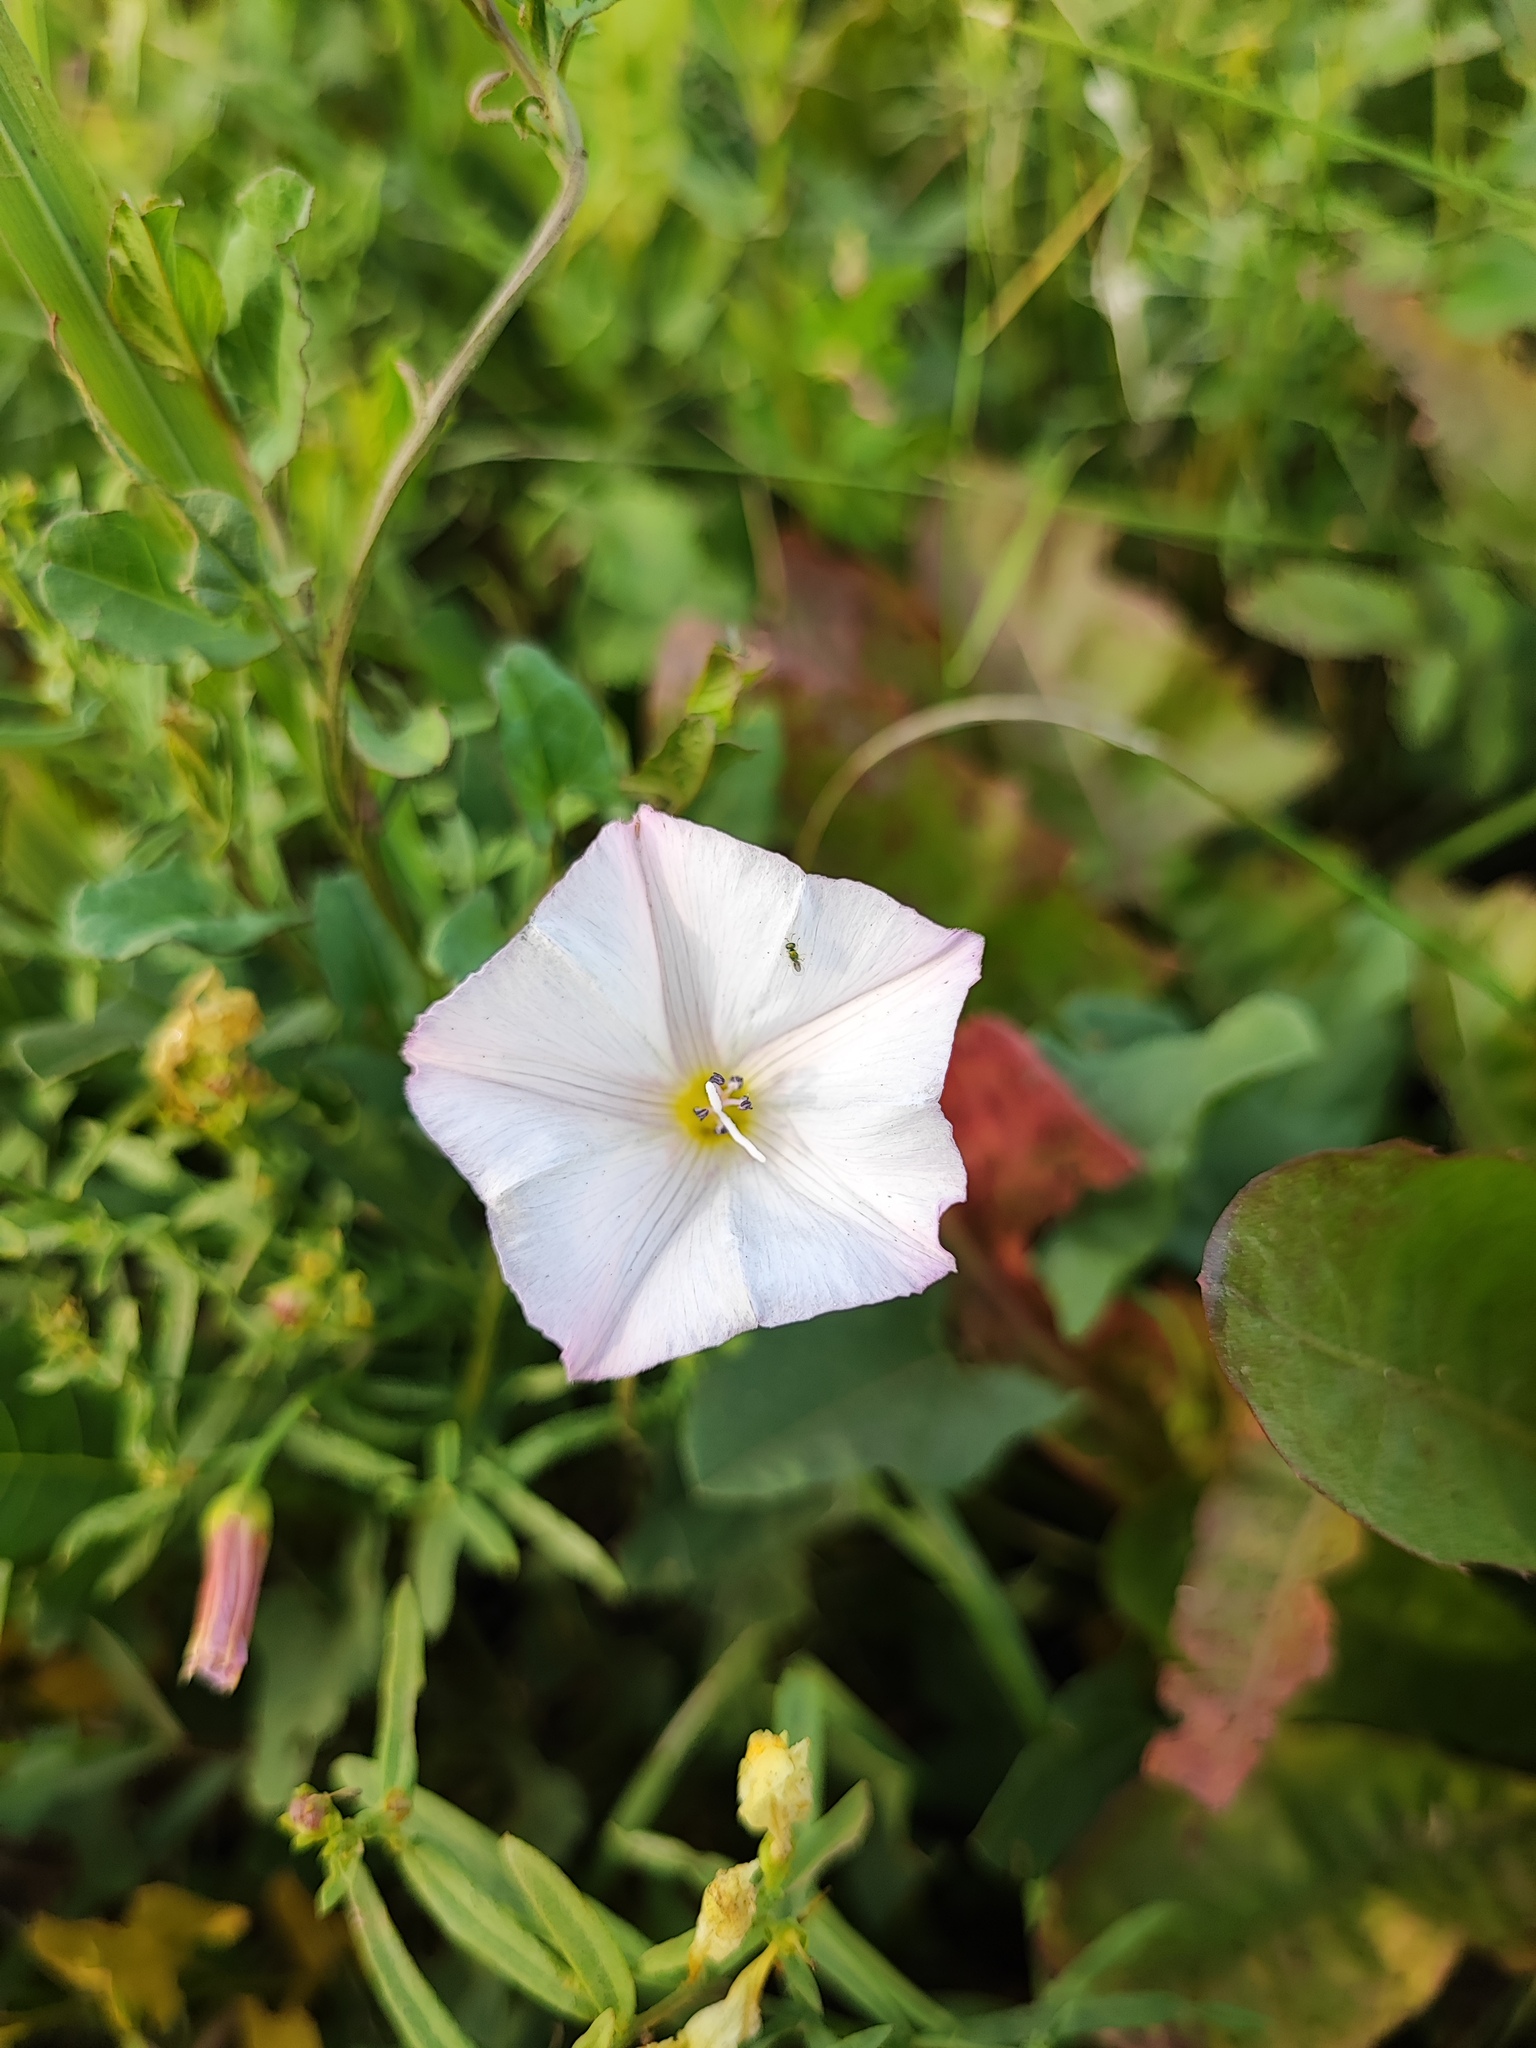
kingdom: Plantae
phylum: Tracheophyta
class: Magnoliopsida
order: Solanales
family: Convolvulaceae
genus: Convolvulus
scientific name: Convolvulus arvensis
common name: Field bindweed
